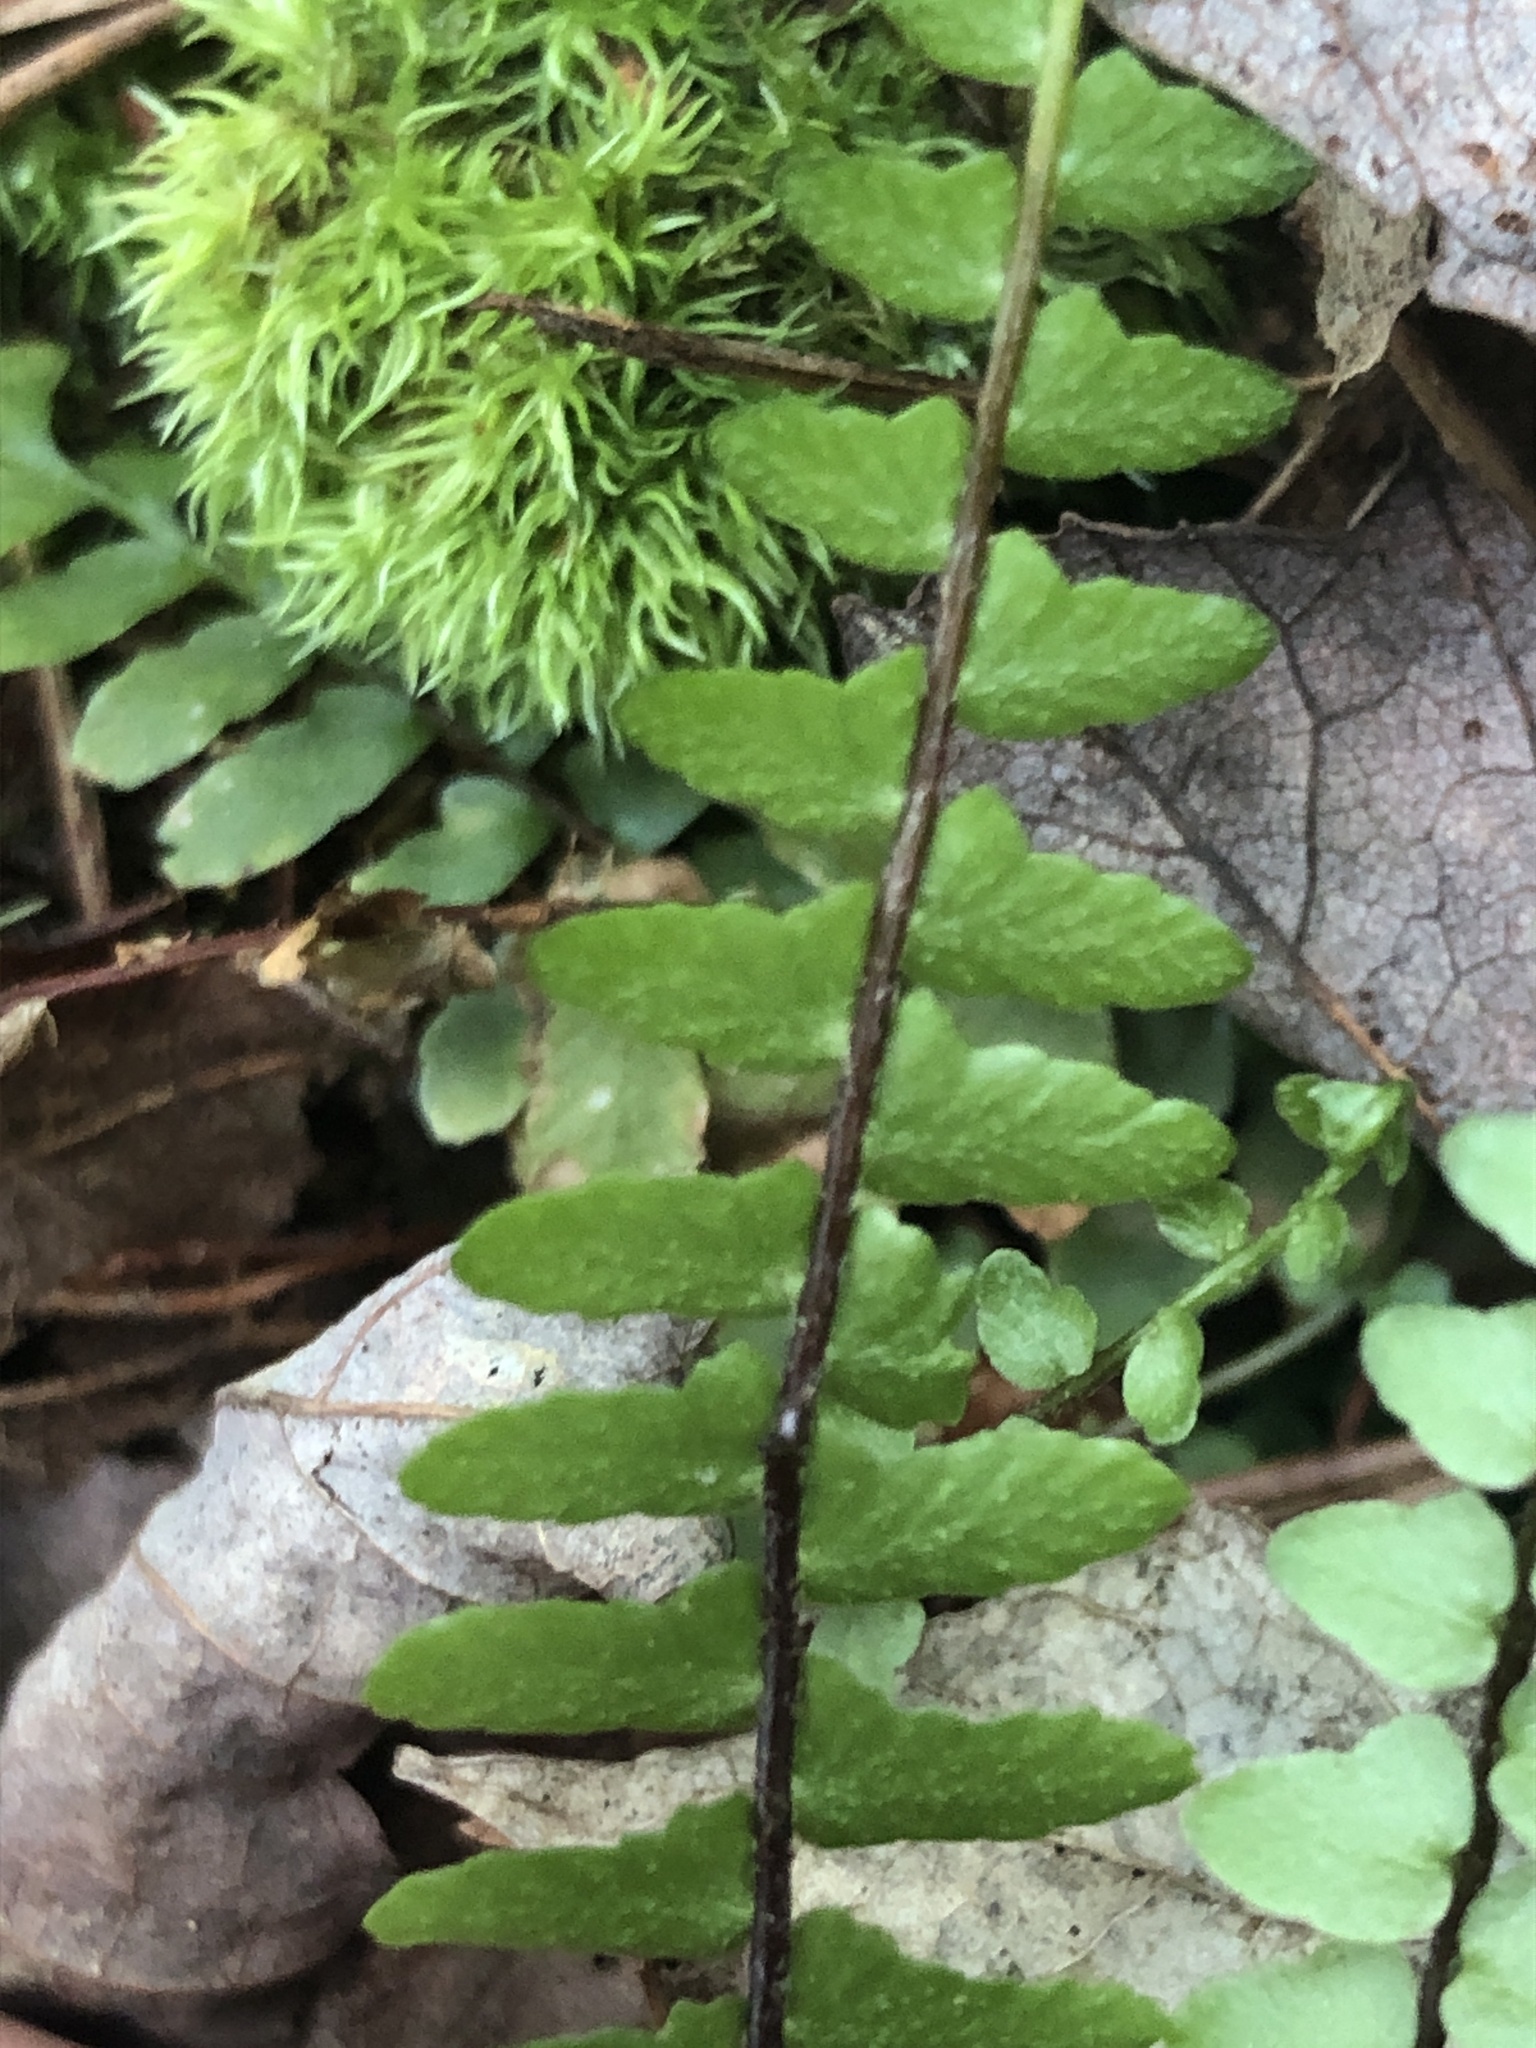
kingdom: Plantae
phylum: Tracheophyta
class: Polypodiopsida
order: Polypodiales
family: Aspleniaceae
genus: Asplenium
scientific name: Asplenium platyneuron
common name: Ebony spleenwort
